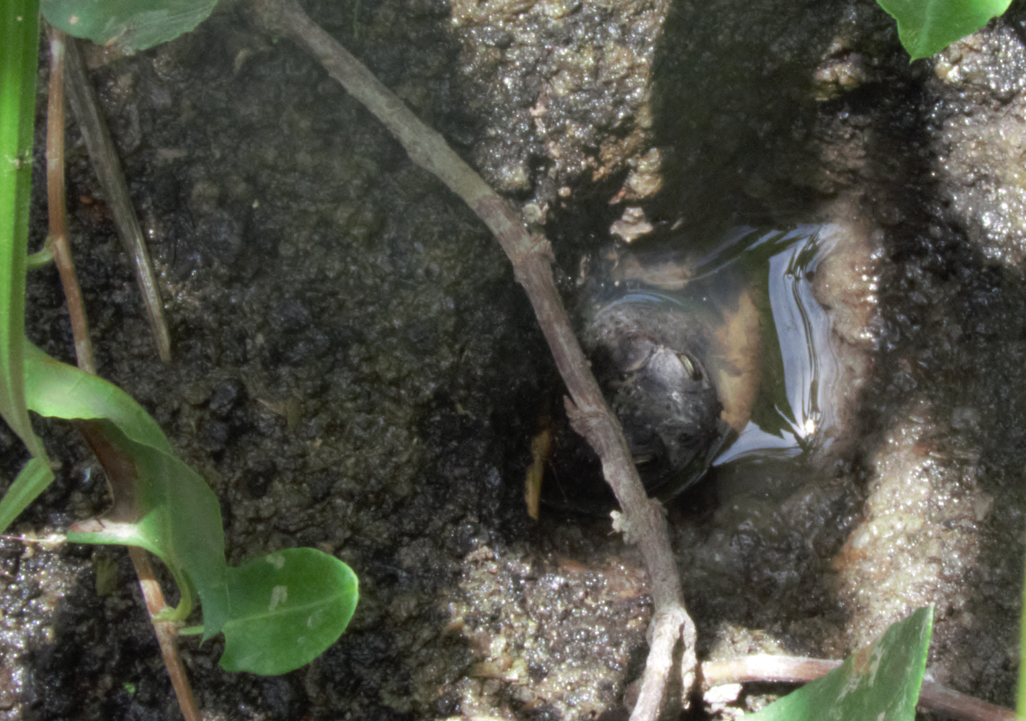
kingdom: Animalia
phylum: Chordata
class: Amphibia
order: Anura
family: Bufonidae
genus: Rhinella
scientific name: Rhinella dorbignyi
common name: D´orbigny’s toad
